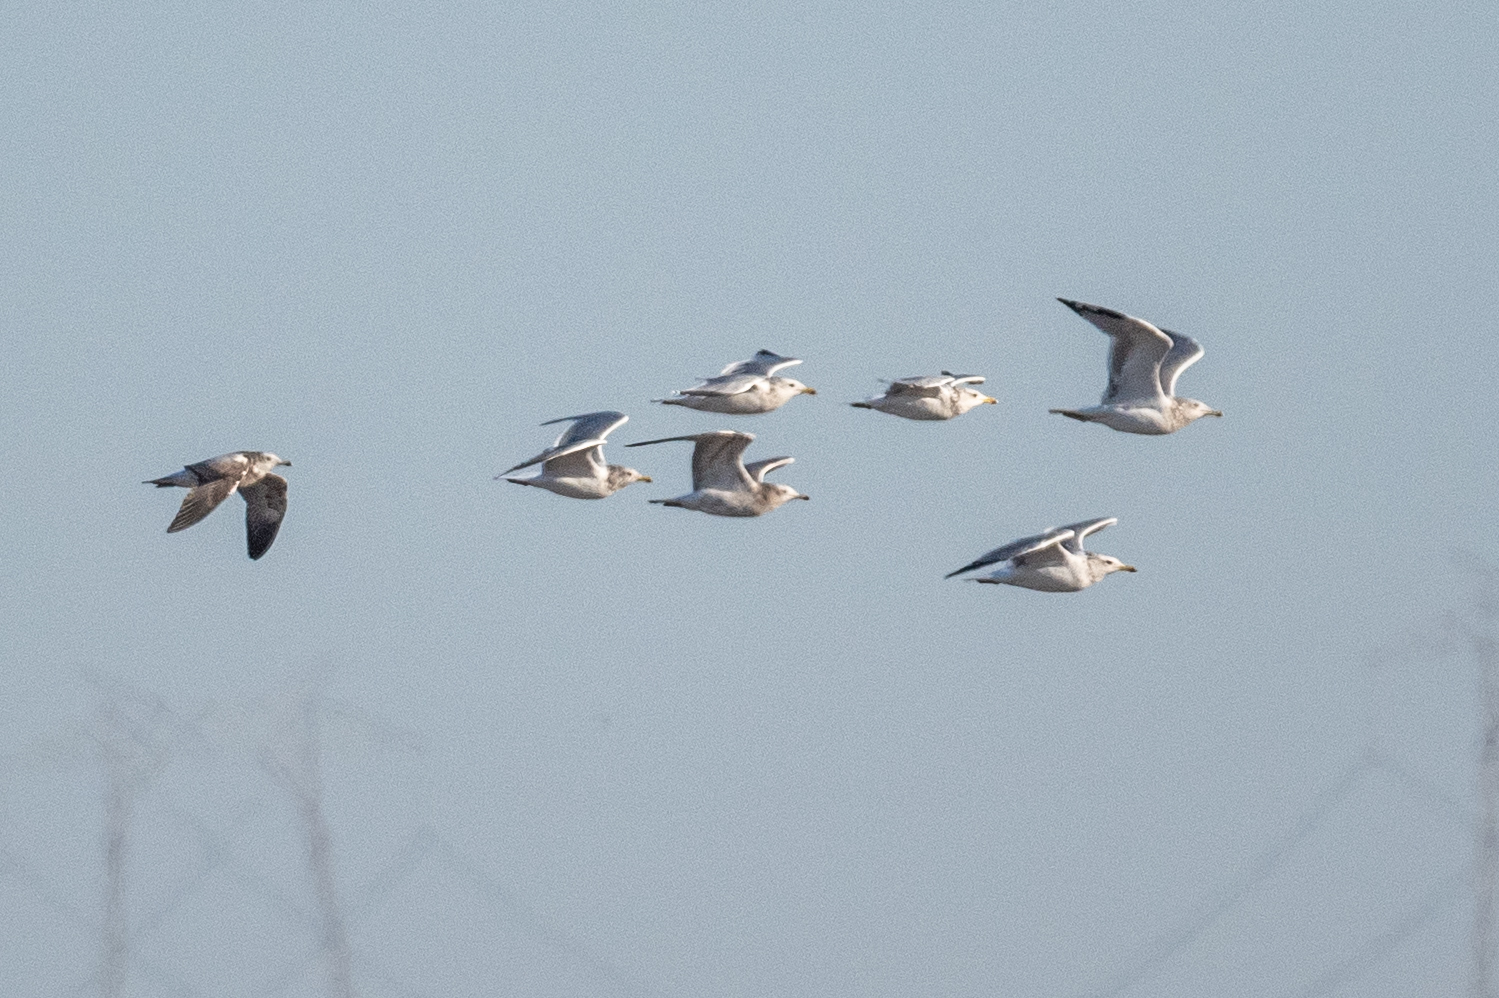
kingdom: Animalia
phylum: Chordata
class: Aves
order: Charadriiformes
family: Laridae
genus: Larus
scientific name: Larus californicus
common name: California gull
